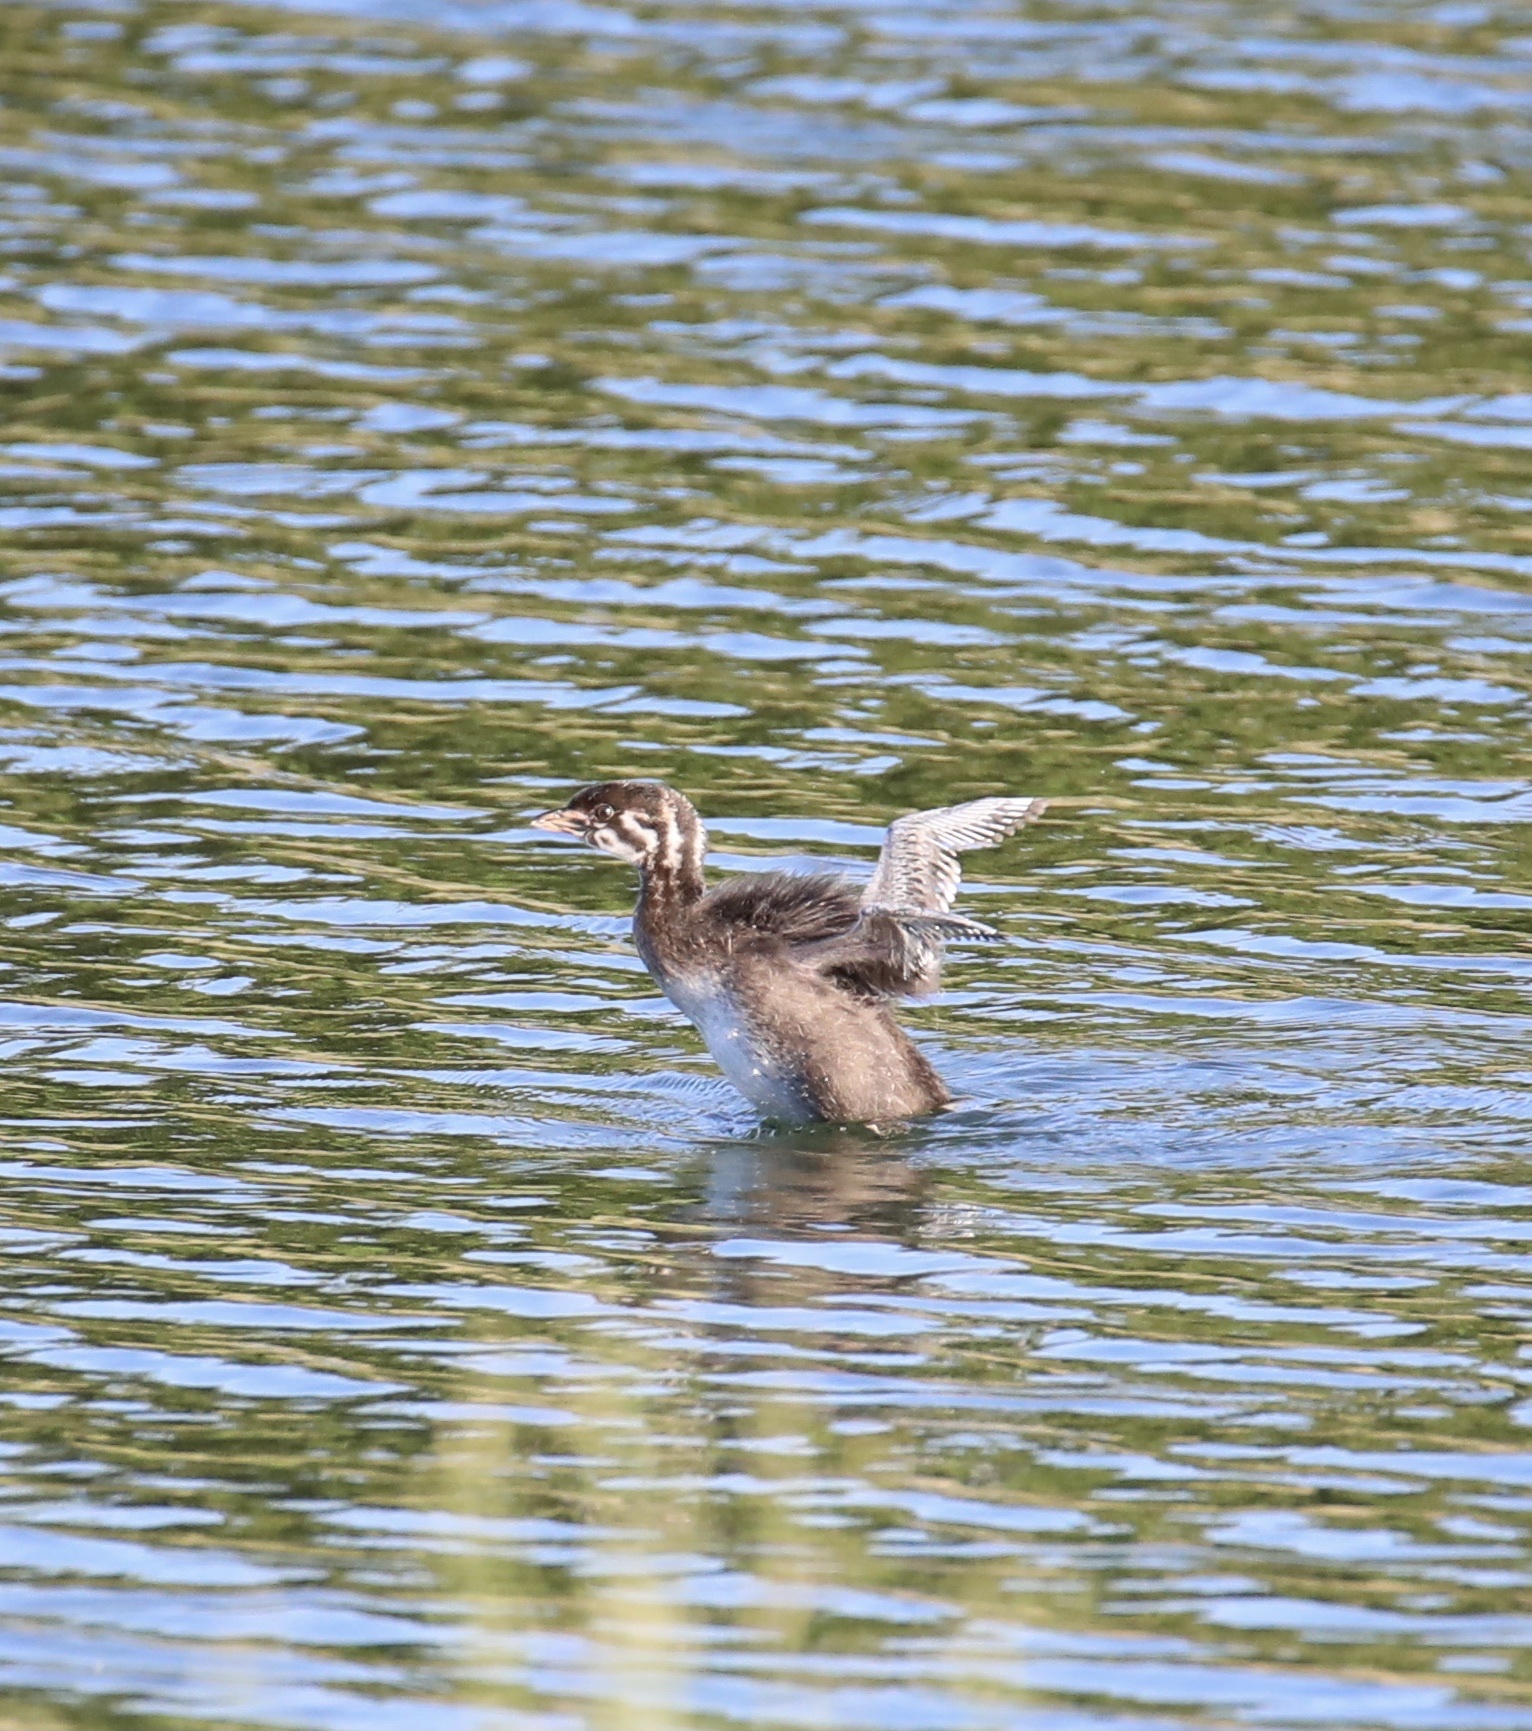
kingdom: Animalia
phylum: Chordata
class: Aves
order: Podicipediformes
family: Podicipedidae
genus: Podilymbus
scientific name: Podilymbus podiceps
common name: Pied-billed grebe
